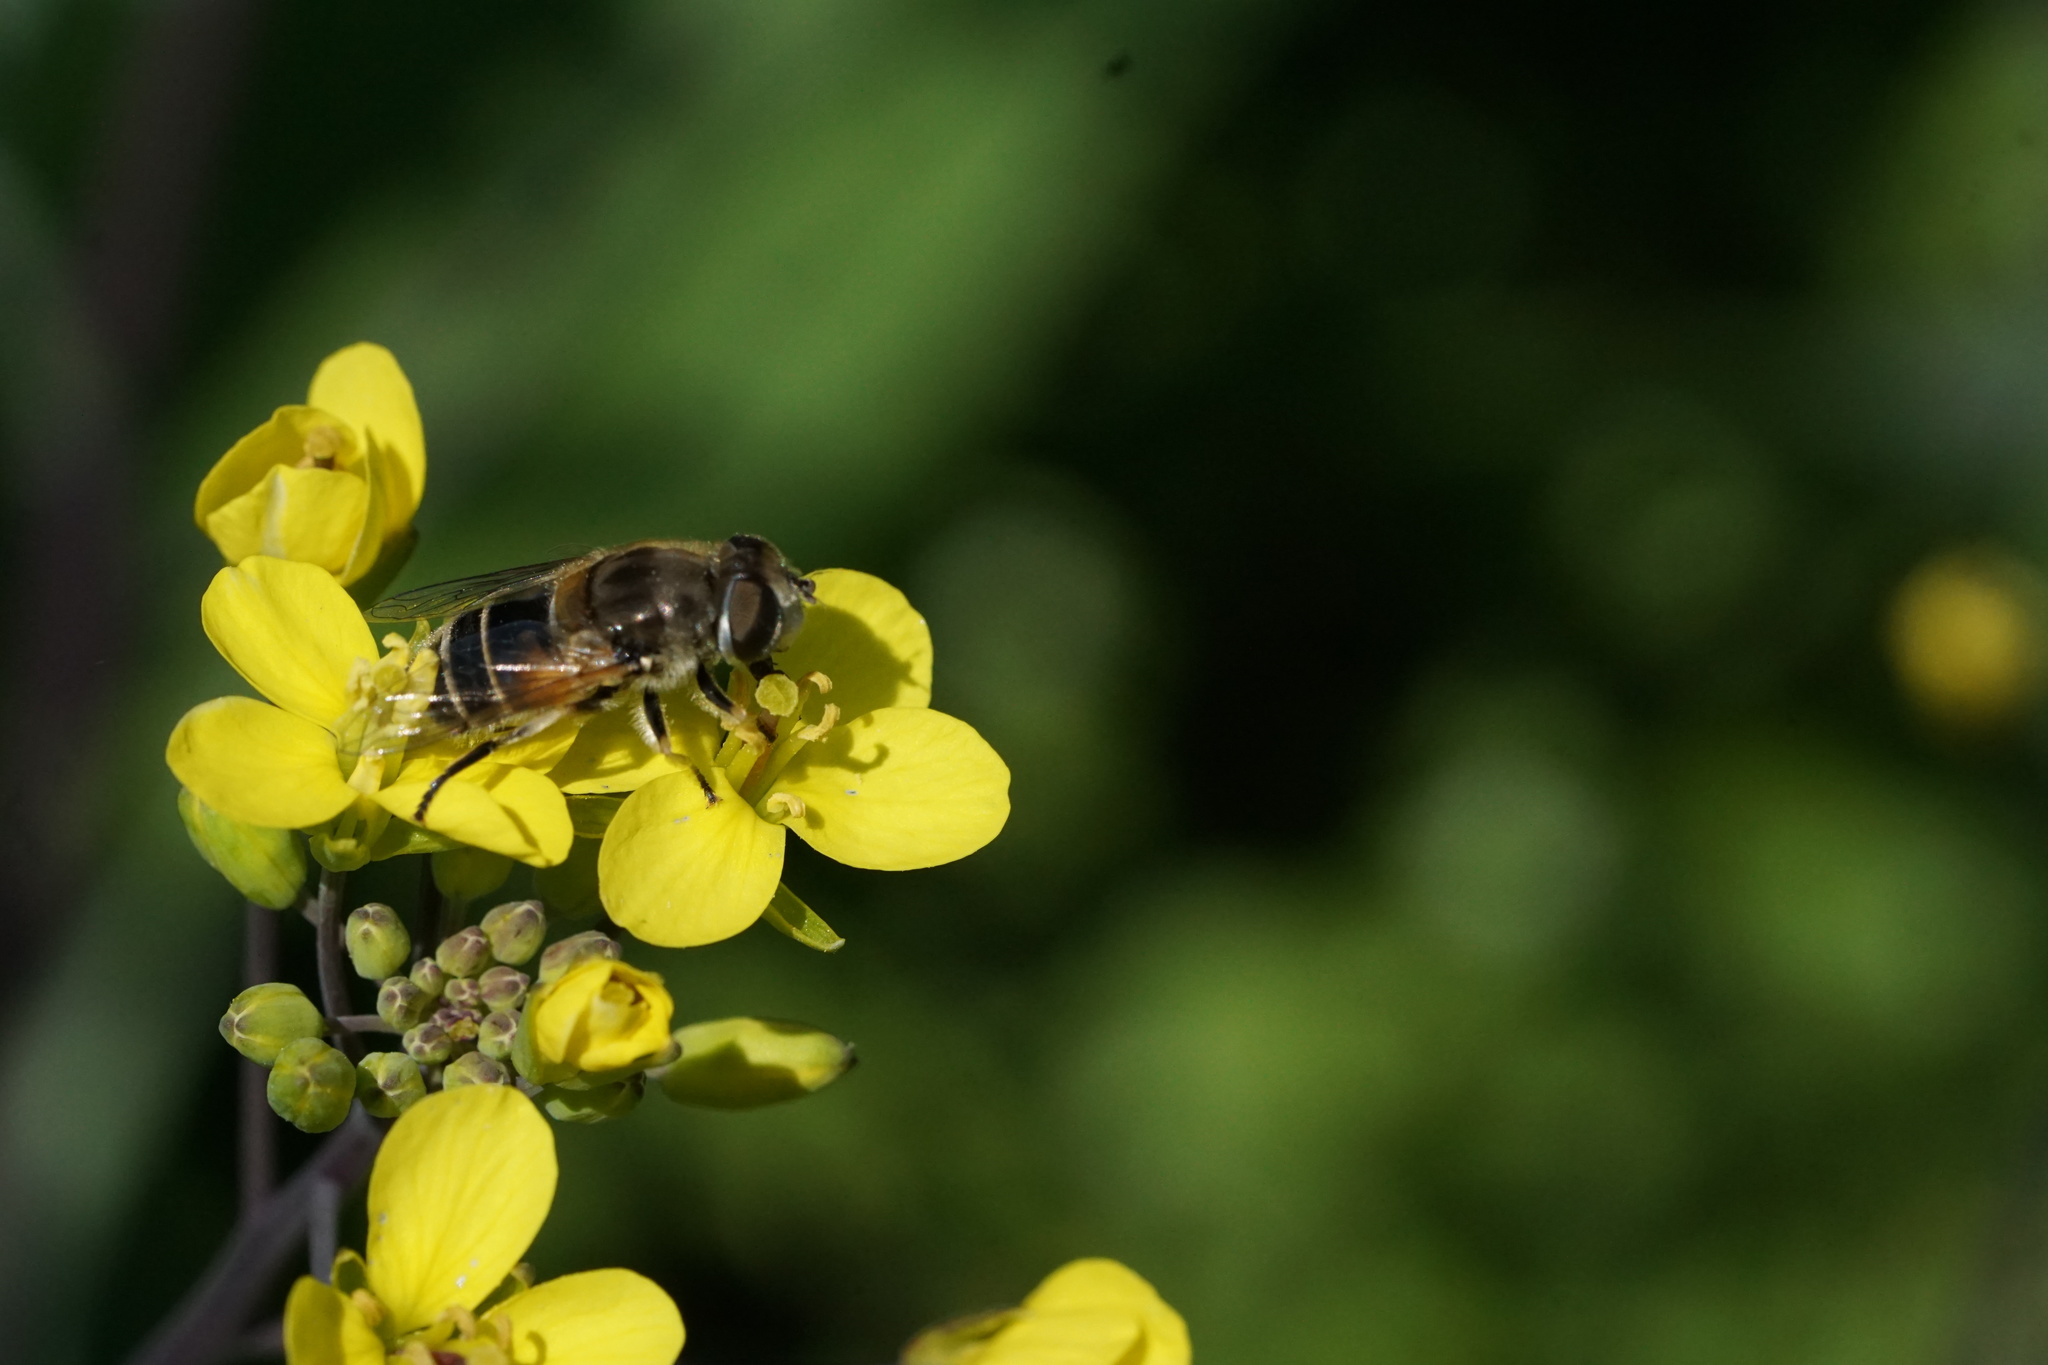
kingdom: Animalia
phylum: Arthropoda
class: Insecta
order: Diptera
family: Syrphidae
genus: Eristalis
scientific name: Eristalis arbustorum
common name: Hover fly
